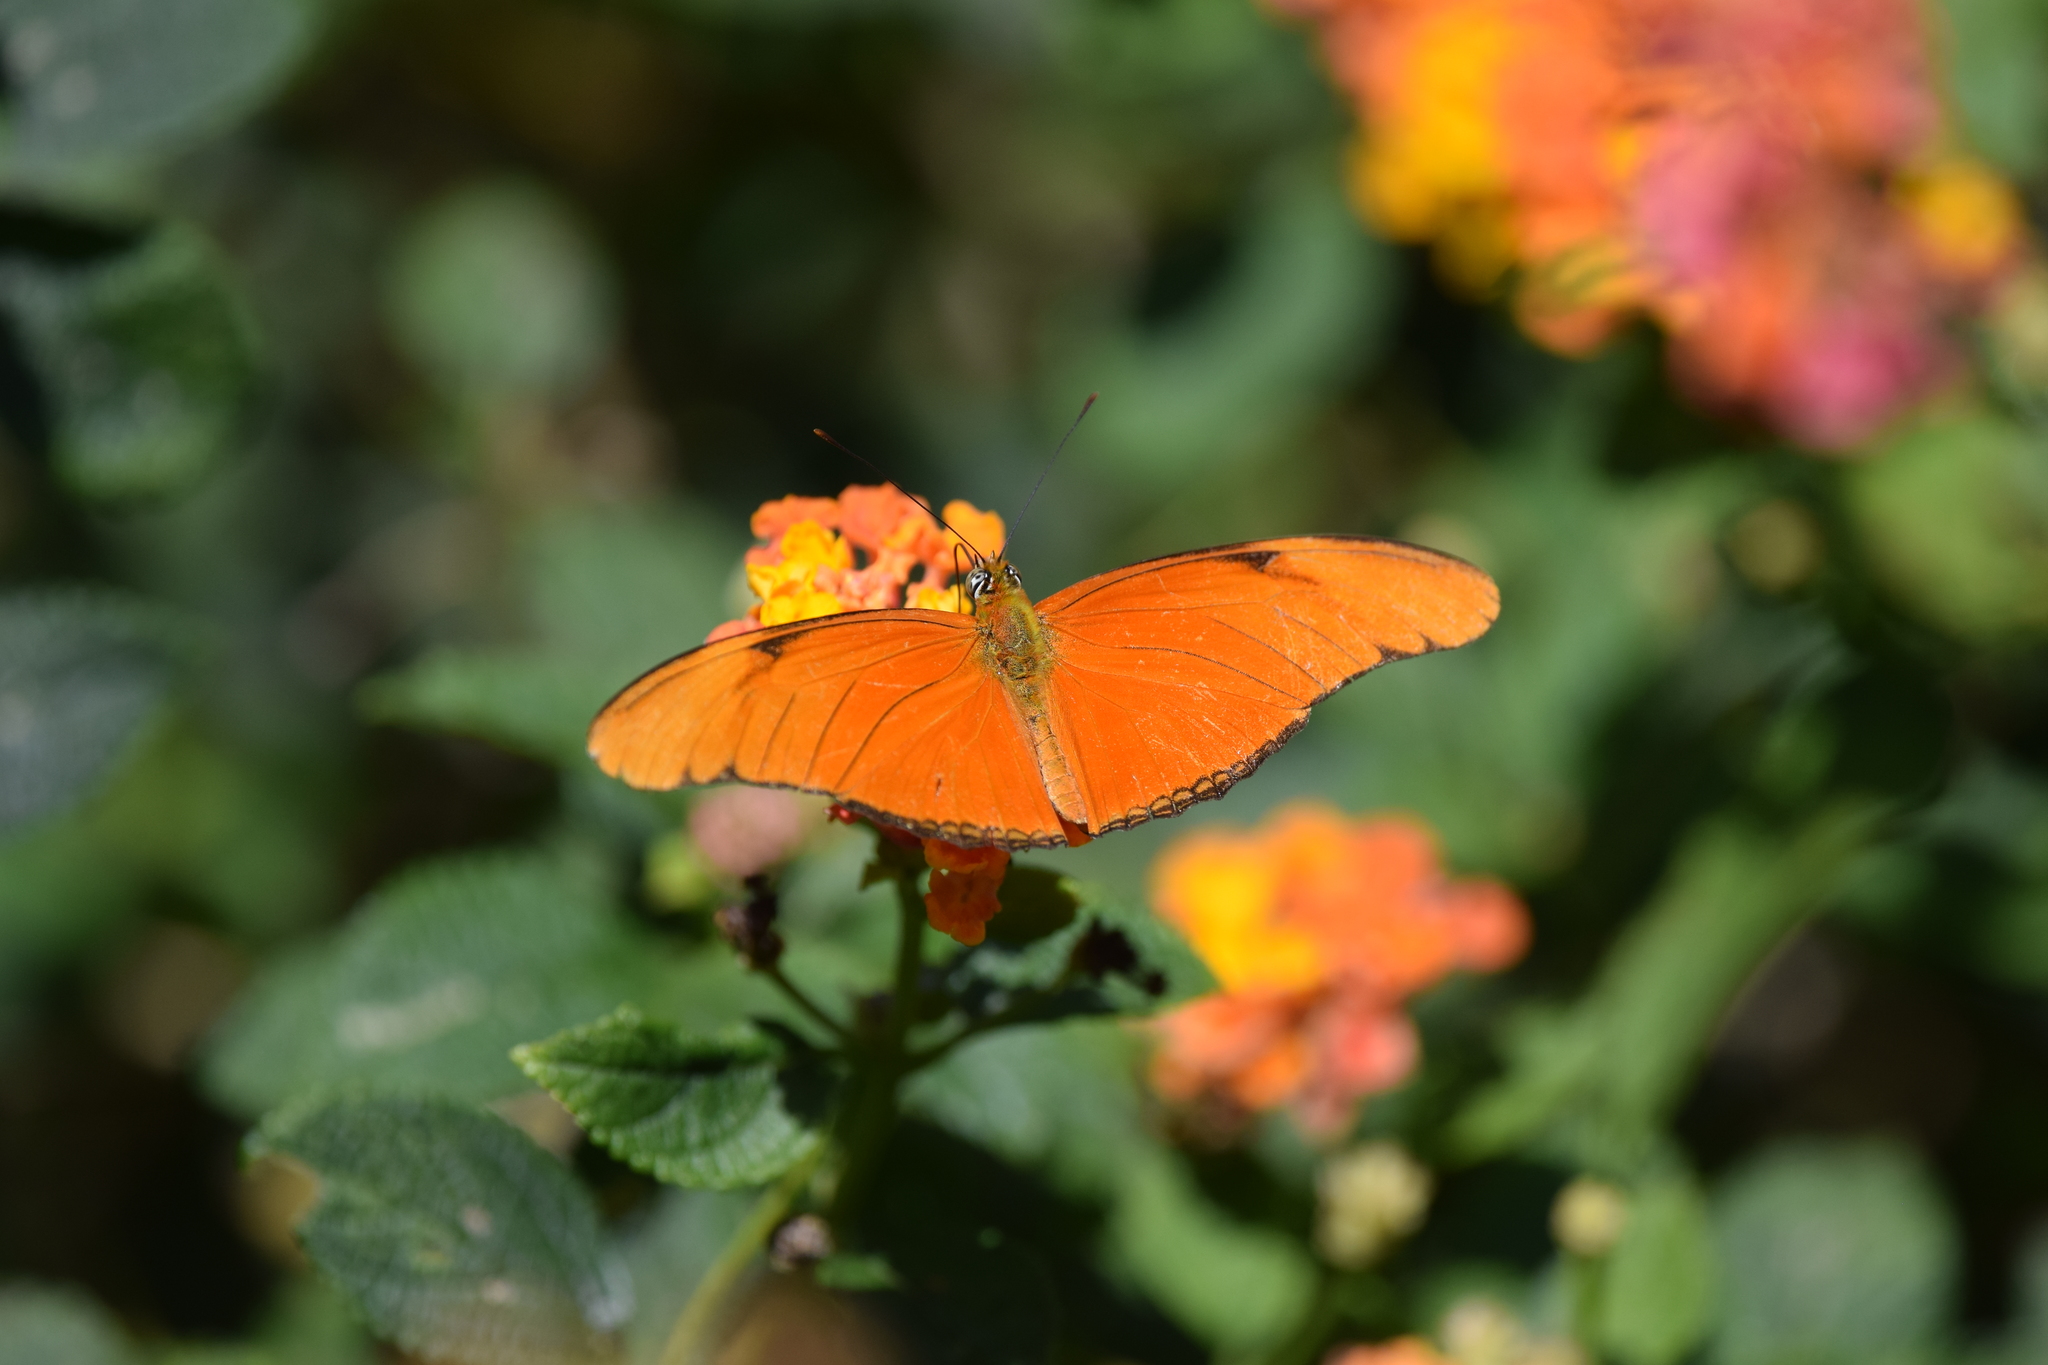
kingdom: Animalia
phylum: Arthropoda
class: Insecta
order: Lepidoptera
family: Nymphalidae
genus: Dryas
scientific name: Dryas iulia
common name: Flambeau
